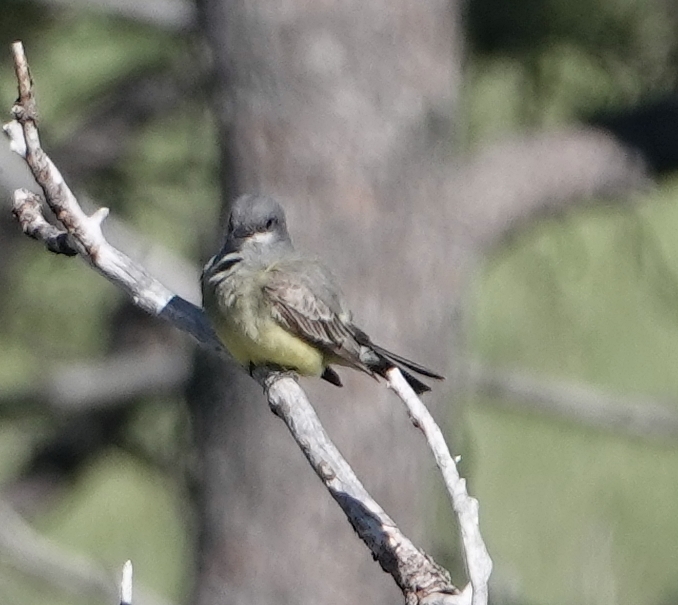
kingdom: Animalia
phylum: Chordata
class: Aves
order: Passeriformes
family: Tyrannidae
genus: Tyrannus
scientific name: Tyrannus vociferans
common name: Cassin's kingbird
